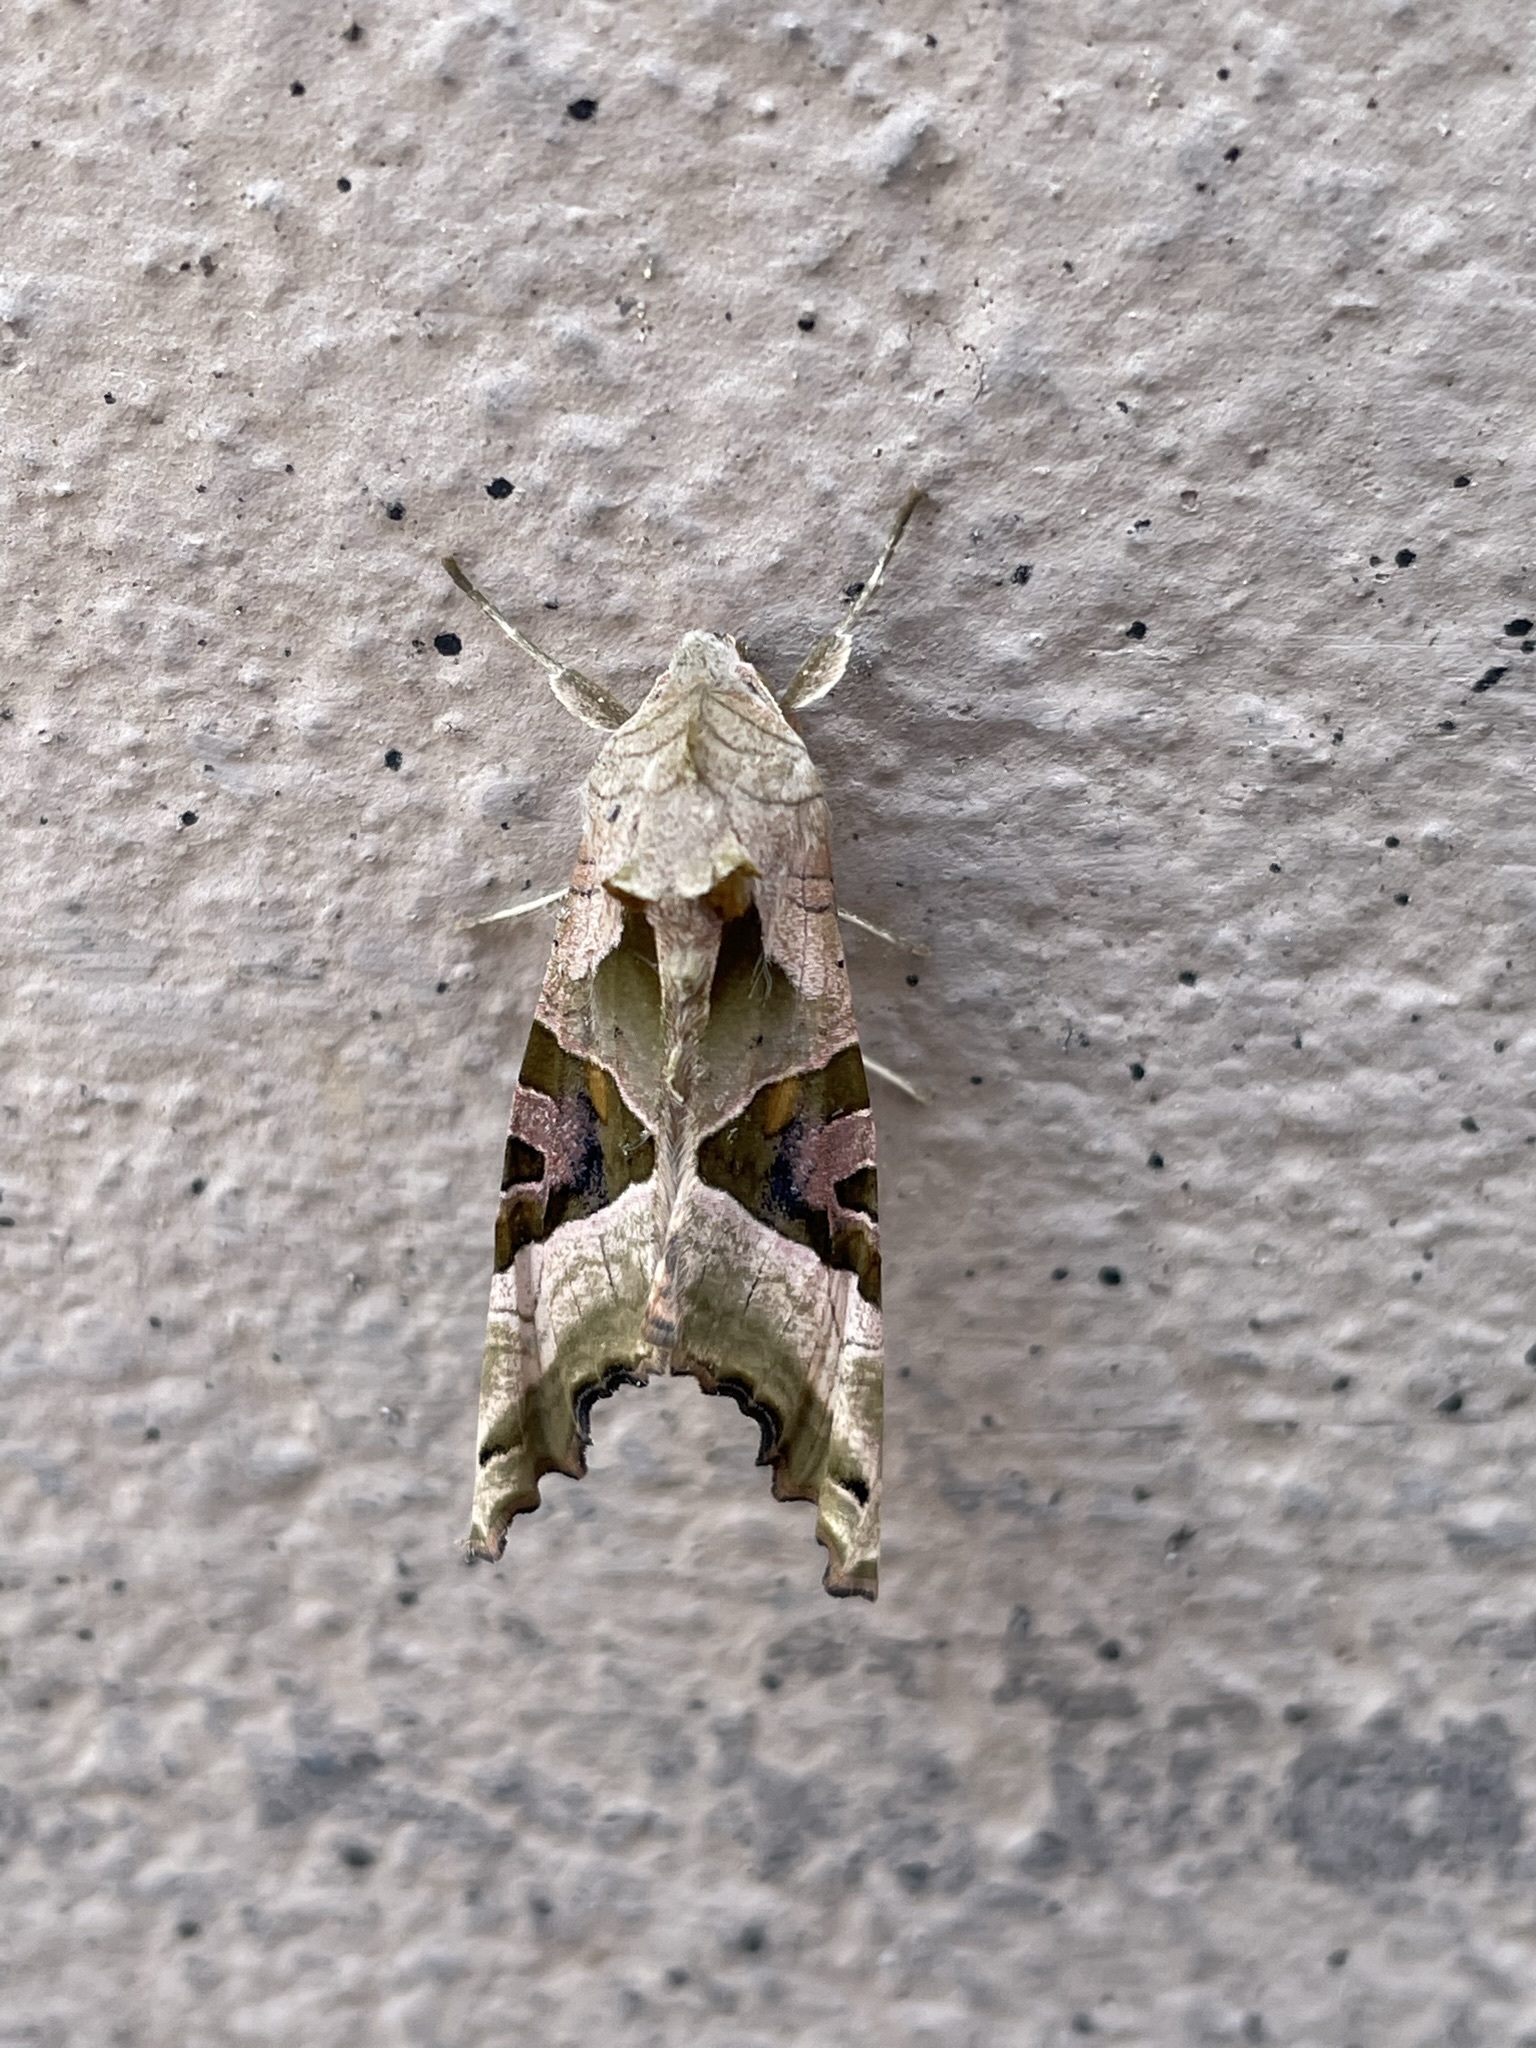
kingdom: Animalia
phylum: Arthropoda
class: Insecta
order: Lepidoptera
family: Noctuidae
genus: Phlogophora
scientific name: Phlogophora meticulosa
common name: Angle shades
